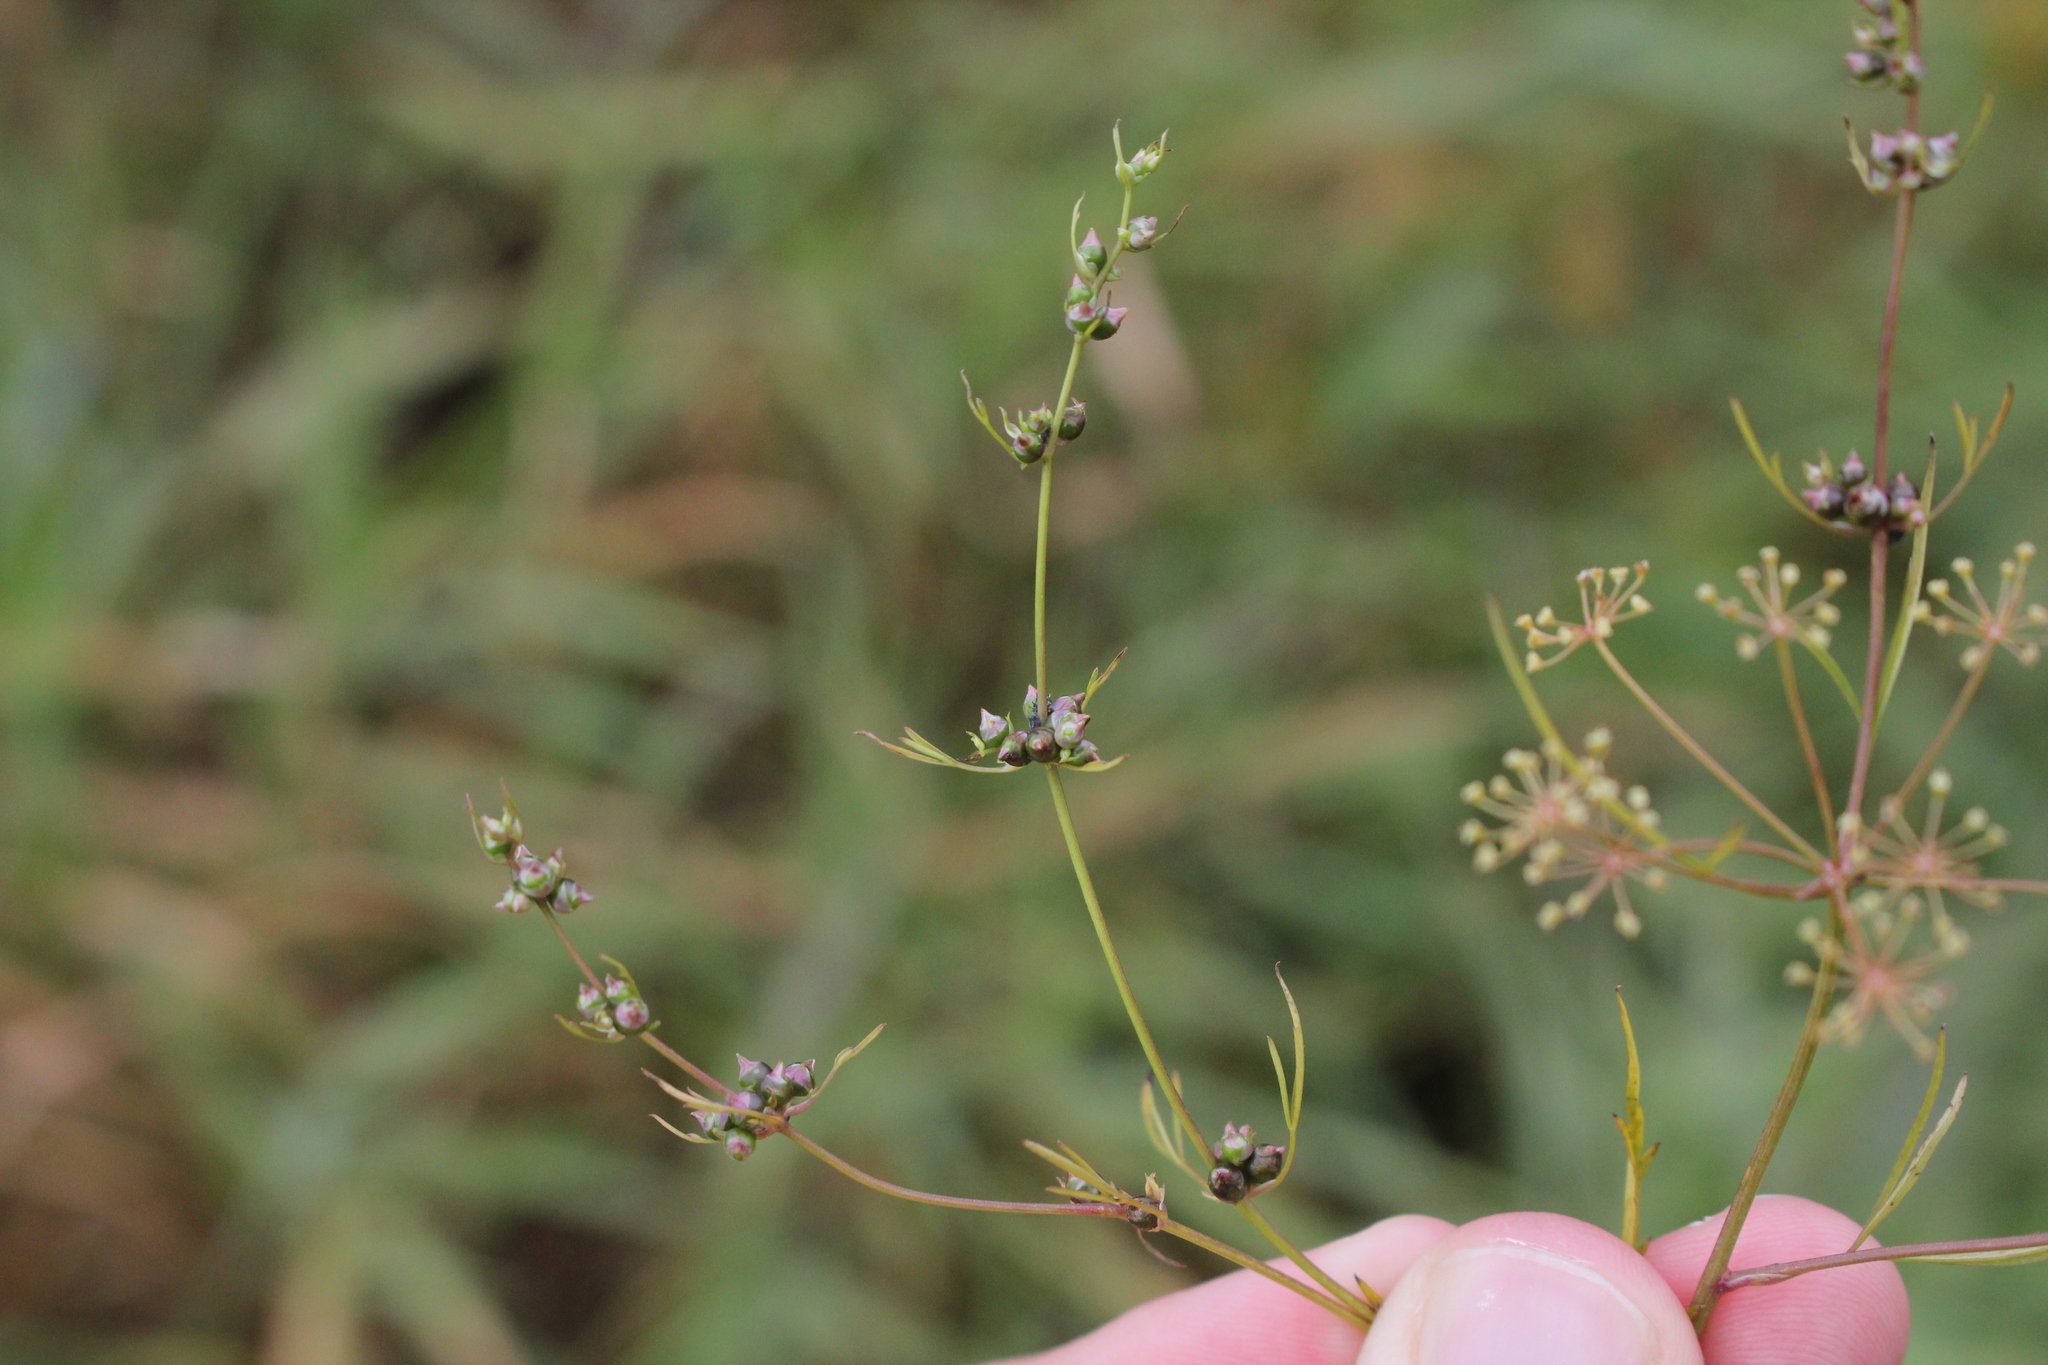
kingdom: Plantae
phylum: Tracheophyta
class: Magnoliopsida
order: Apiales
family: Apiaceae
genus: Cicuta
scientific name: Cicuta bulbifera
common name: Bulb-bearing water-hemlock
